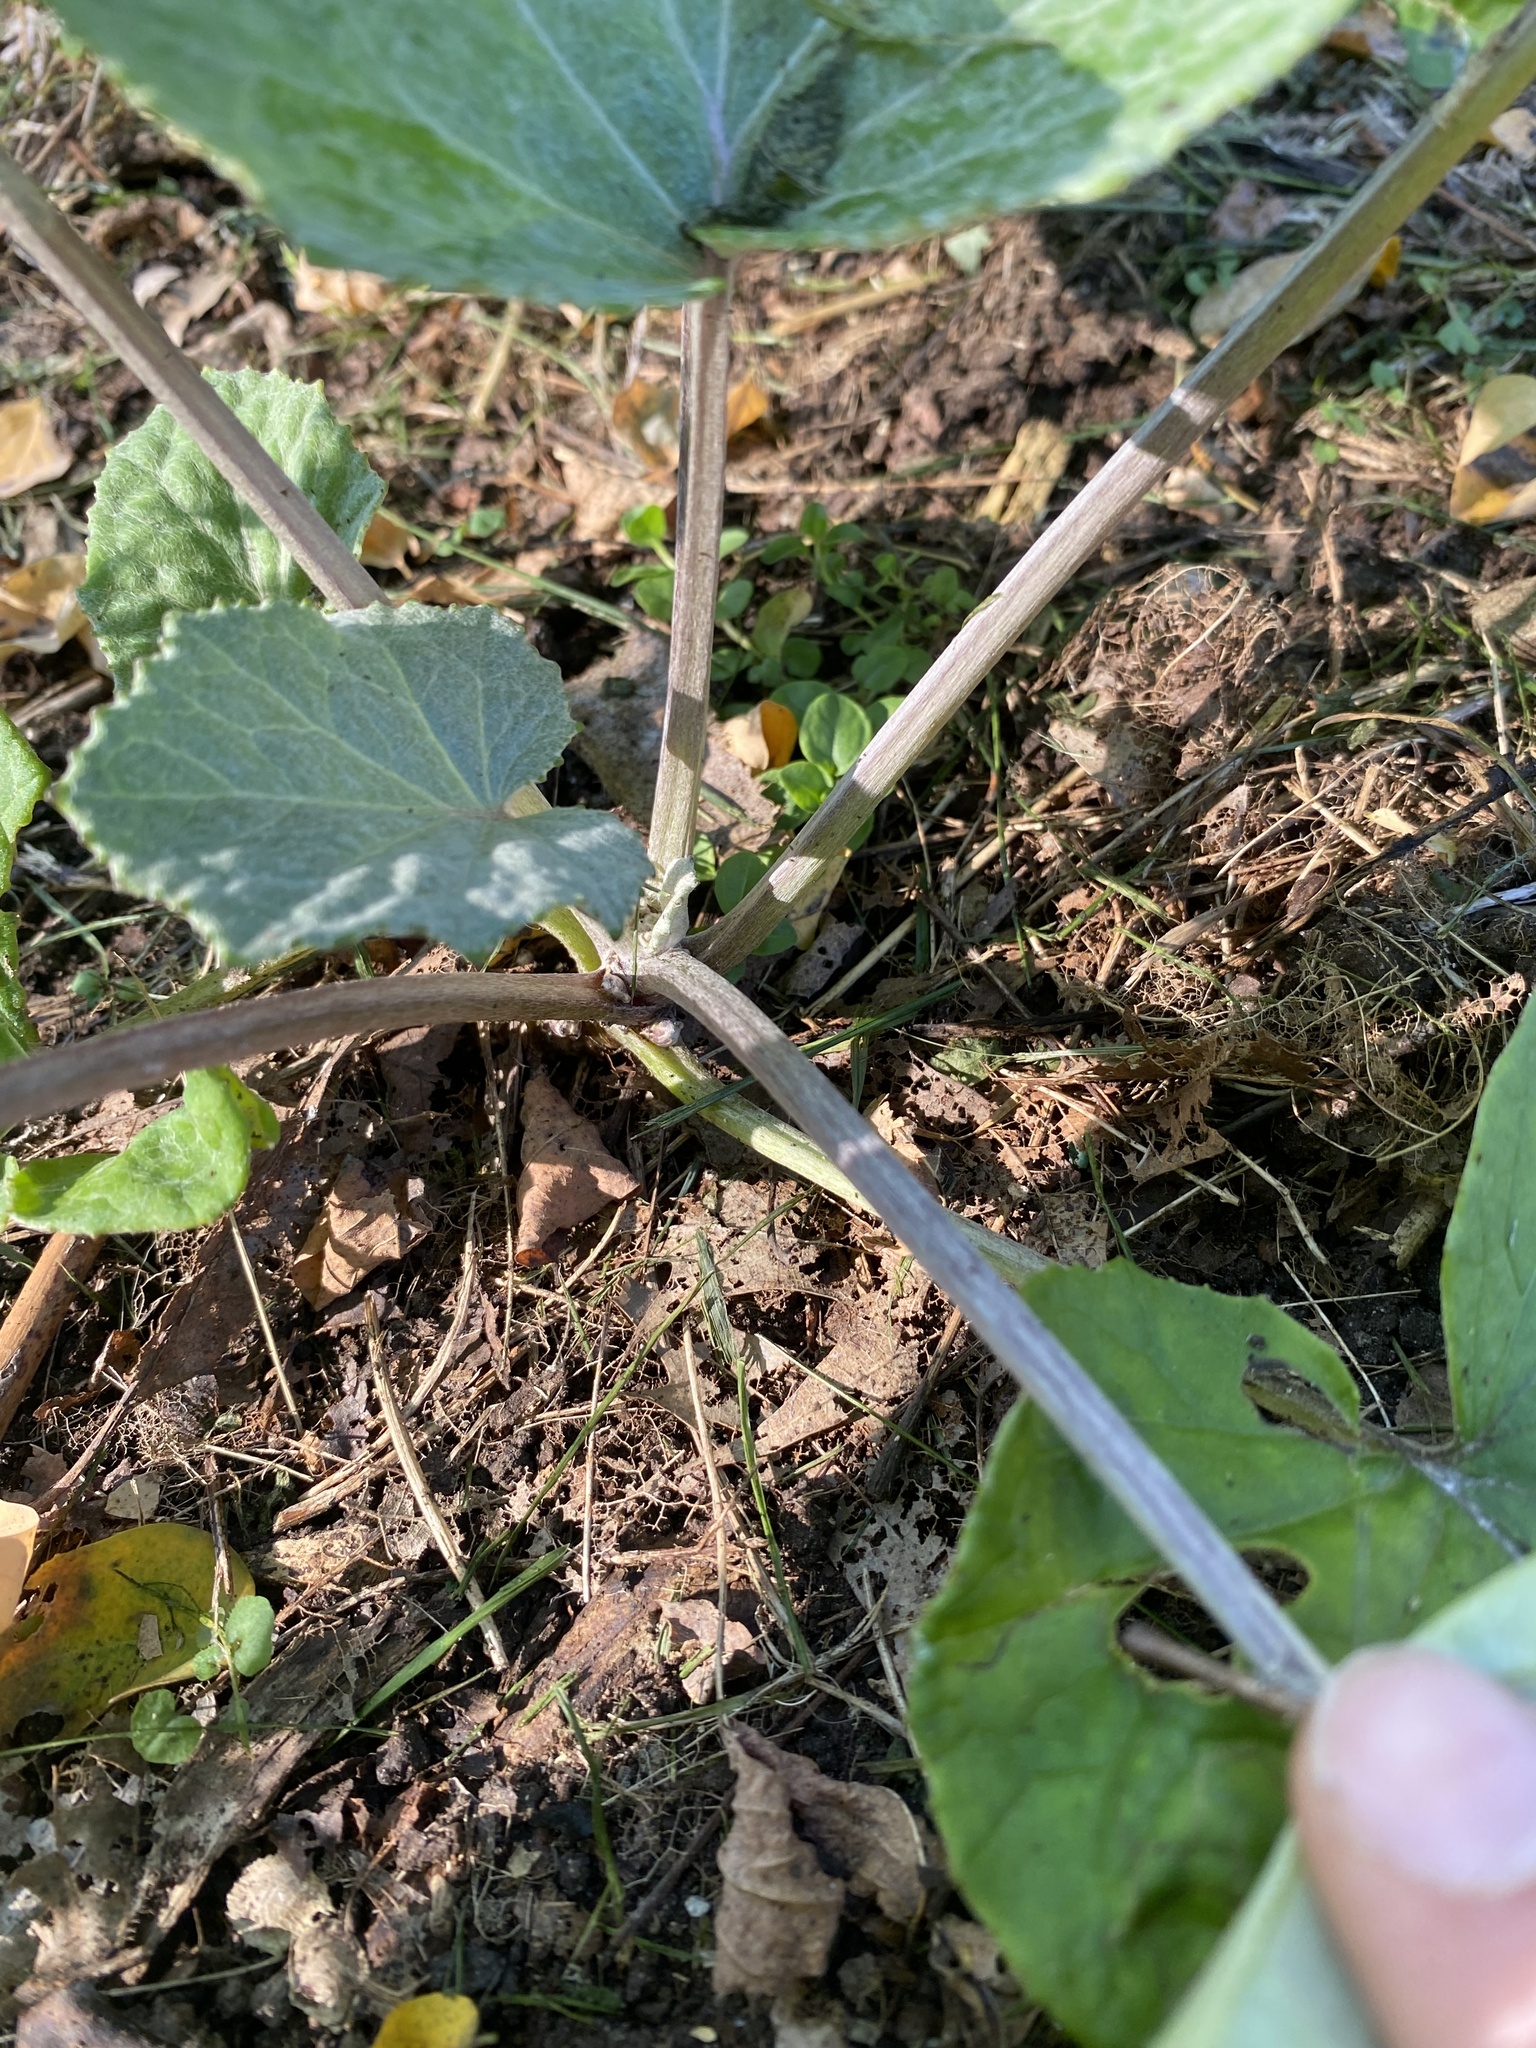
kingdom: Plantae
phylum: Tracheophyta
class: Magnoliopsida
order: Asterales
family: Asteraceae
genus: Tussilago
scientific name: Tussilago farfara
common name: Coltsfoot
